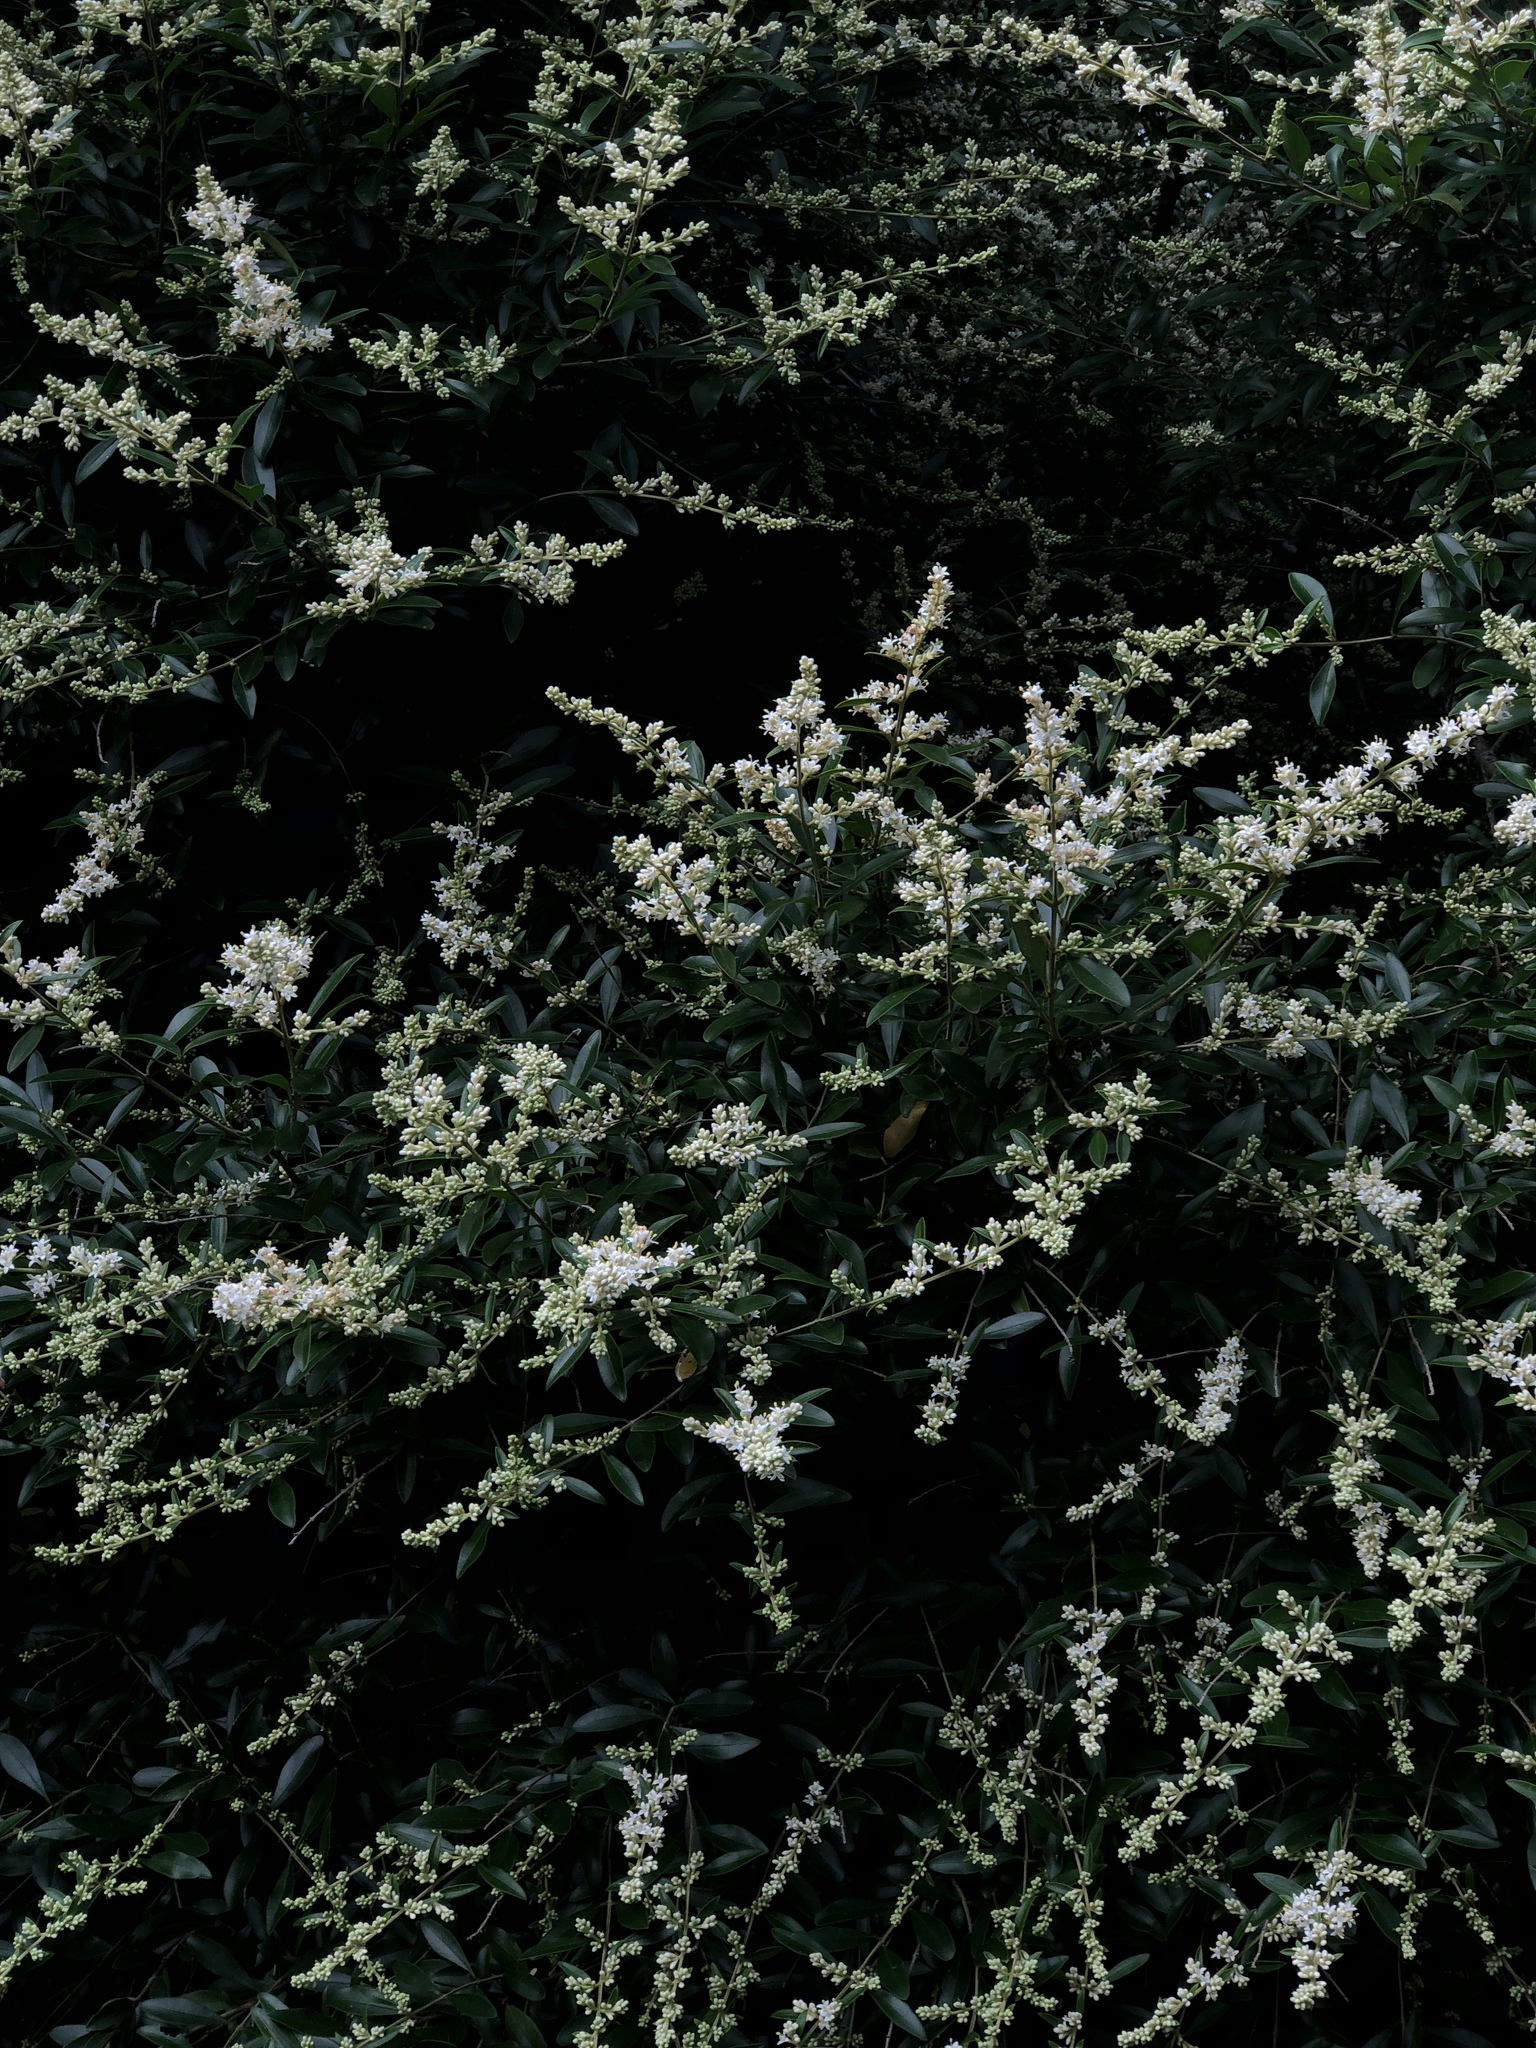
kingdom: Plantae
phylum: Tracheophyta
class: Magnoliopsida
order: Lamiales
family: Oleaceae
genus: Ligustrum
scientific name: Ligustrum quihoui
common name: Waxyleaf privet
